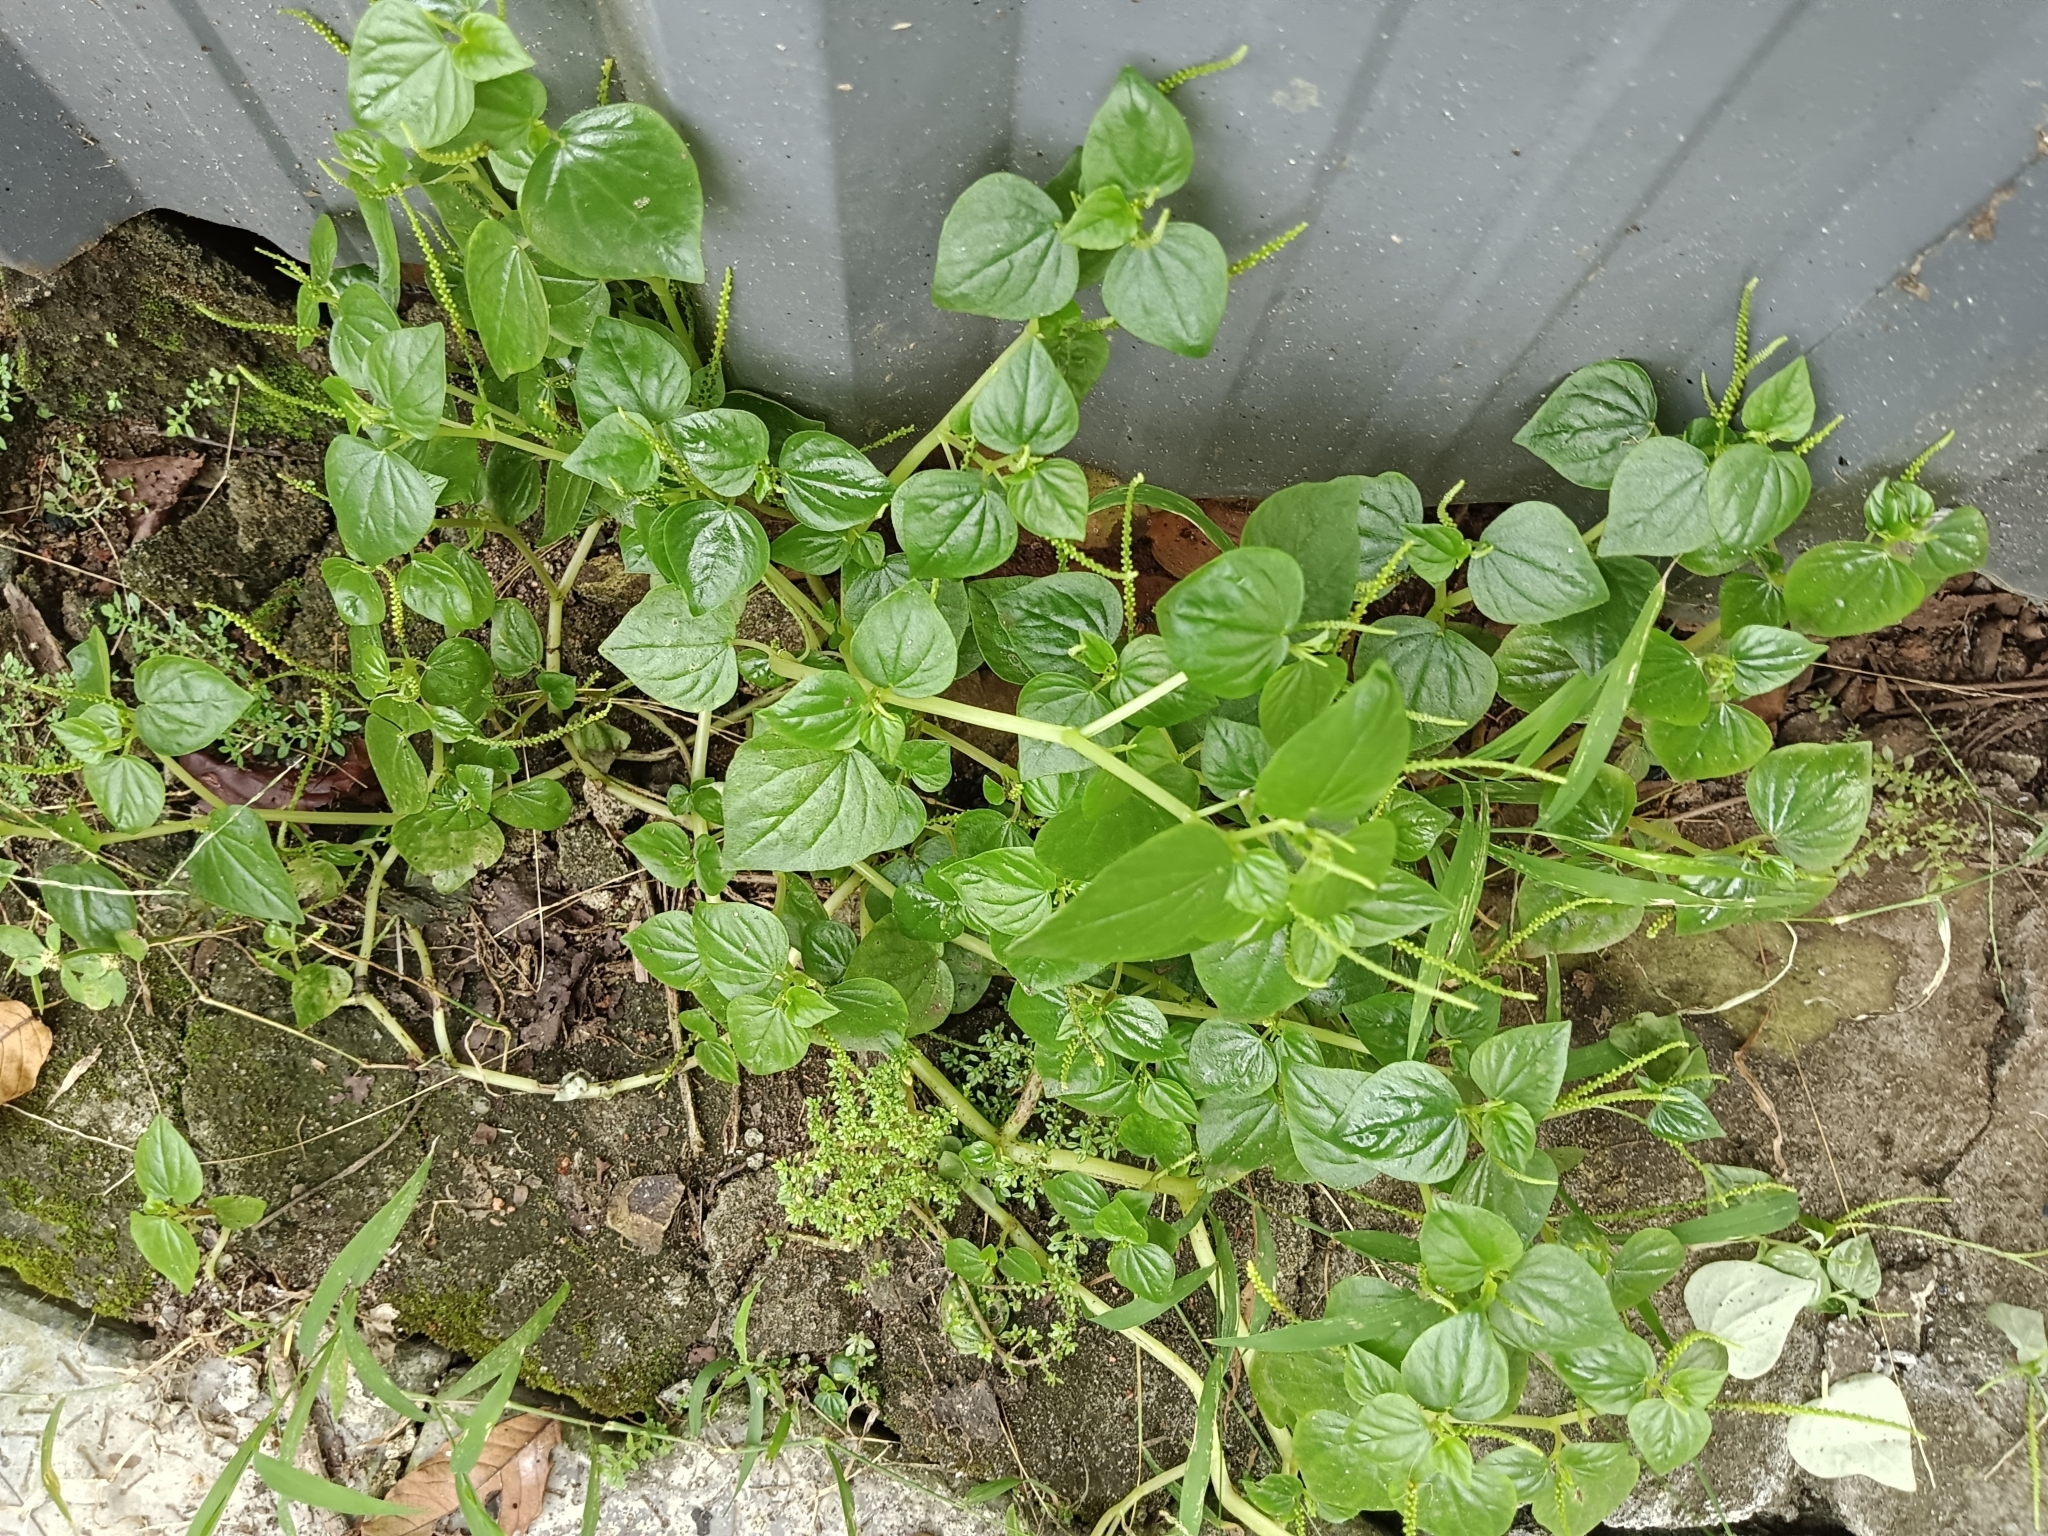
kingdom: Plantae
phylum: Tracheophyta
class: Magnoliopsida
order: Piperales
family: Piperaceae
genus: Peperomia
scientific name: Peperomia pellucida
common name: Man to man
